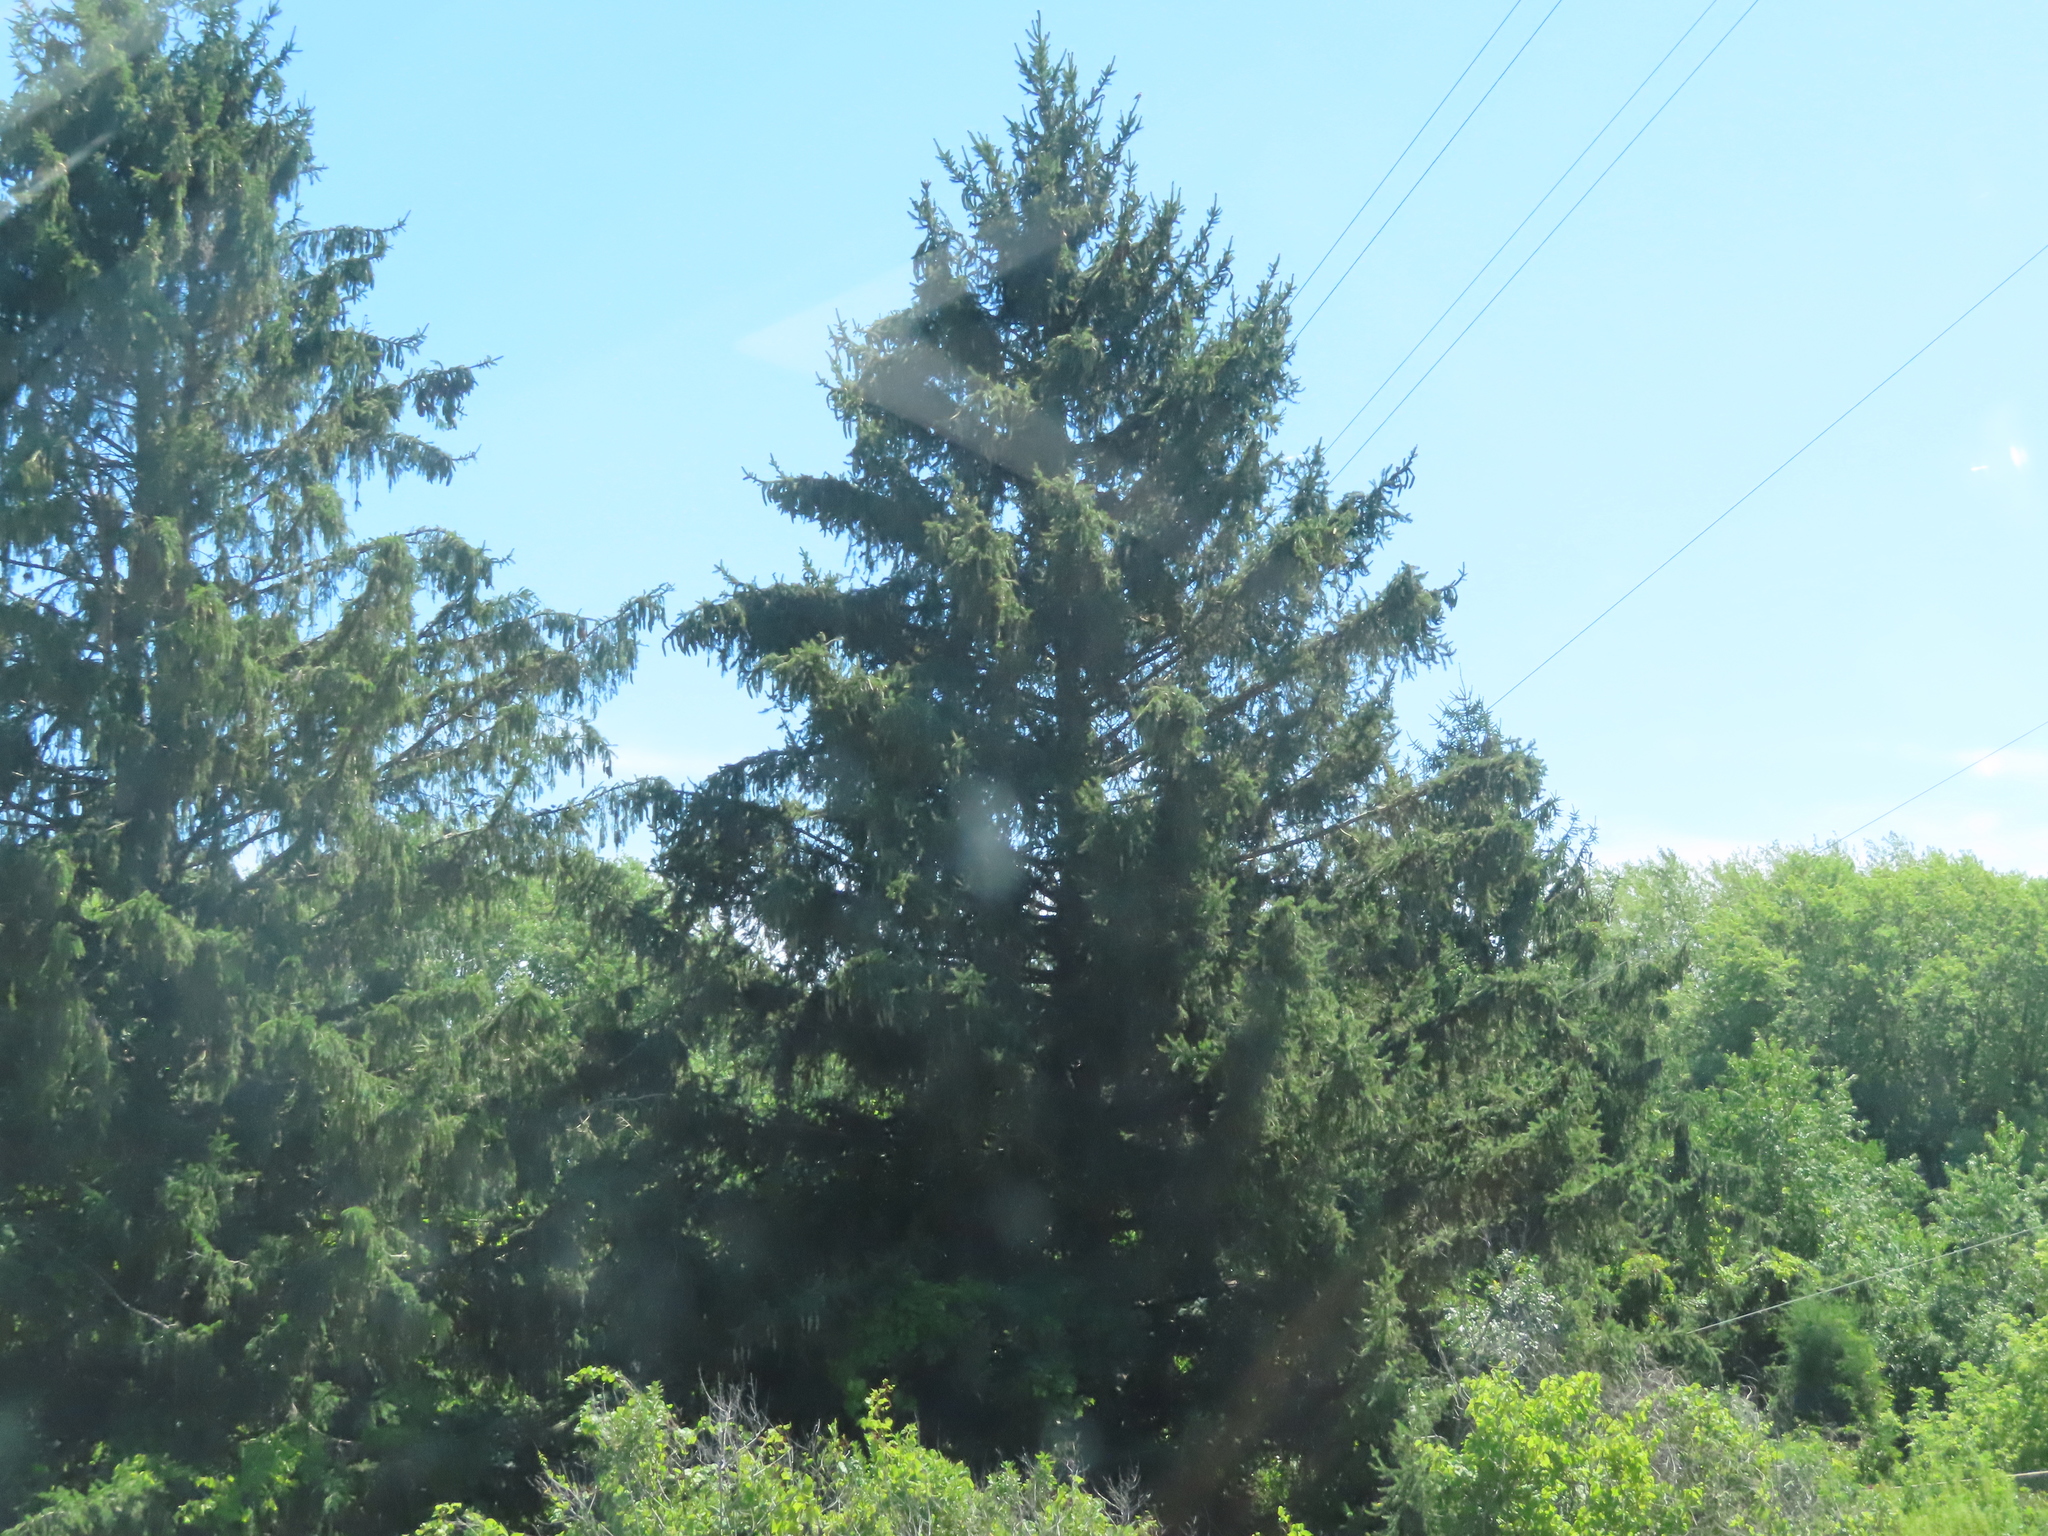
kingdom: Plantae
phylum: Tracheophyta
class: Pinopsida
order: Pinales
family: Pinaceae
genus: Picea
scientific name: Picea abies
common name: Norway spruce
